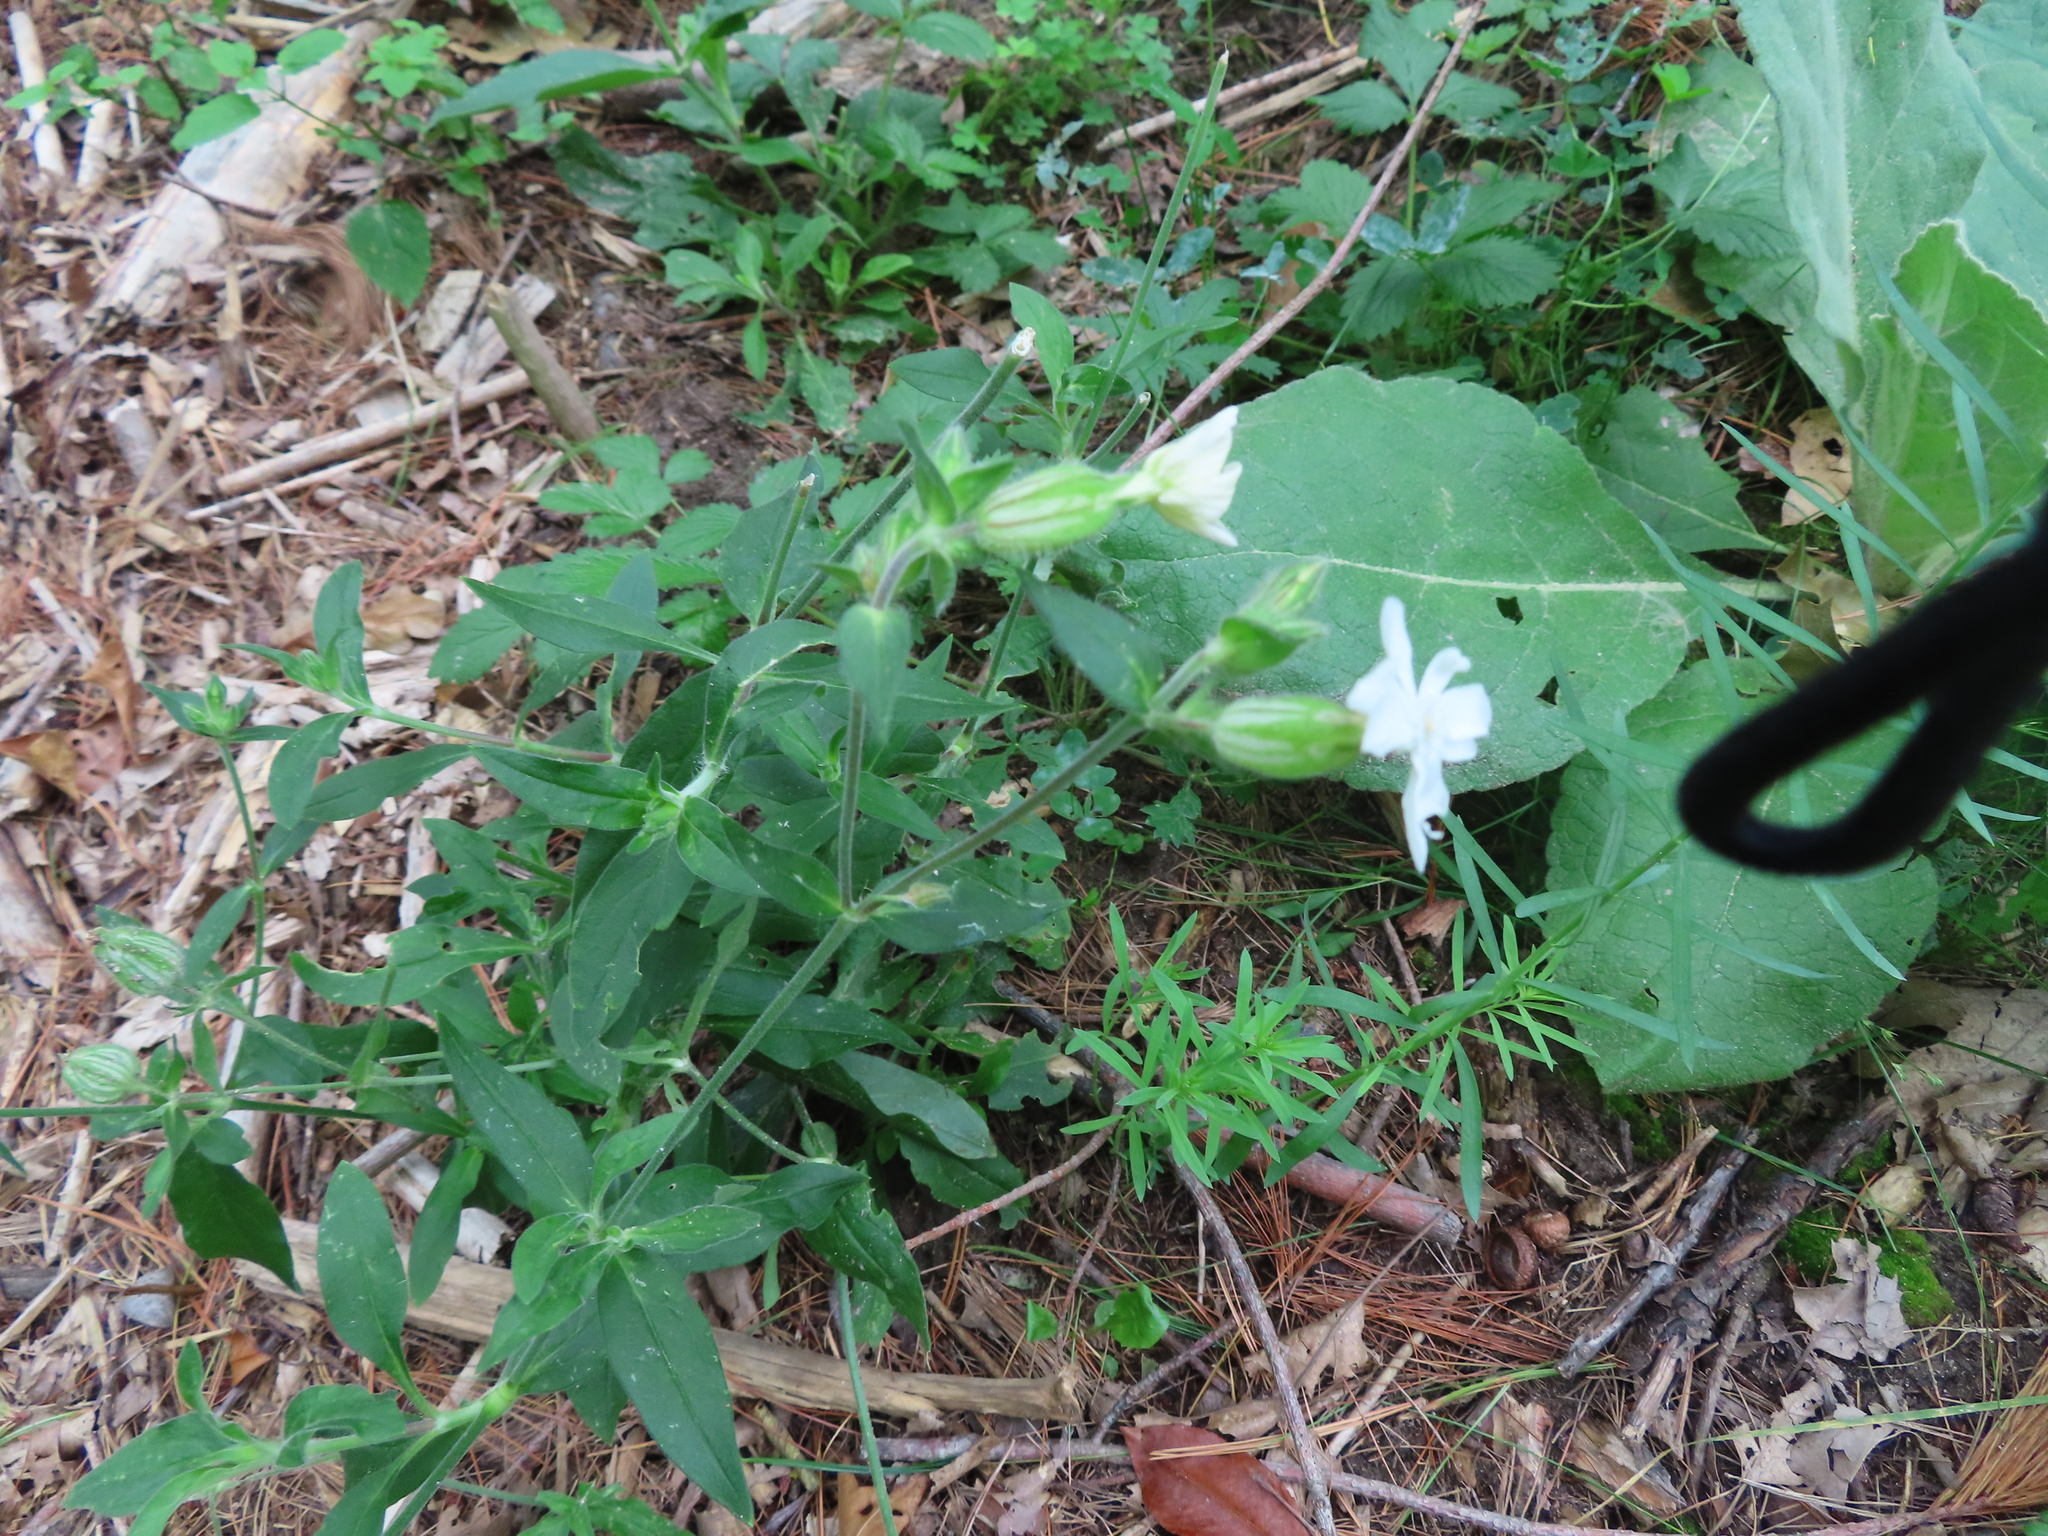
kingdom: Plantae
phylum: Tracheophyta
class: Magnoliopsida
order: Caryophyllales
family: Caryophyllaceae
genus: Silene
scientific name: Silene latifolia
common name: White campion
